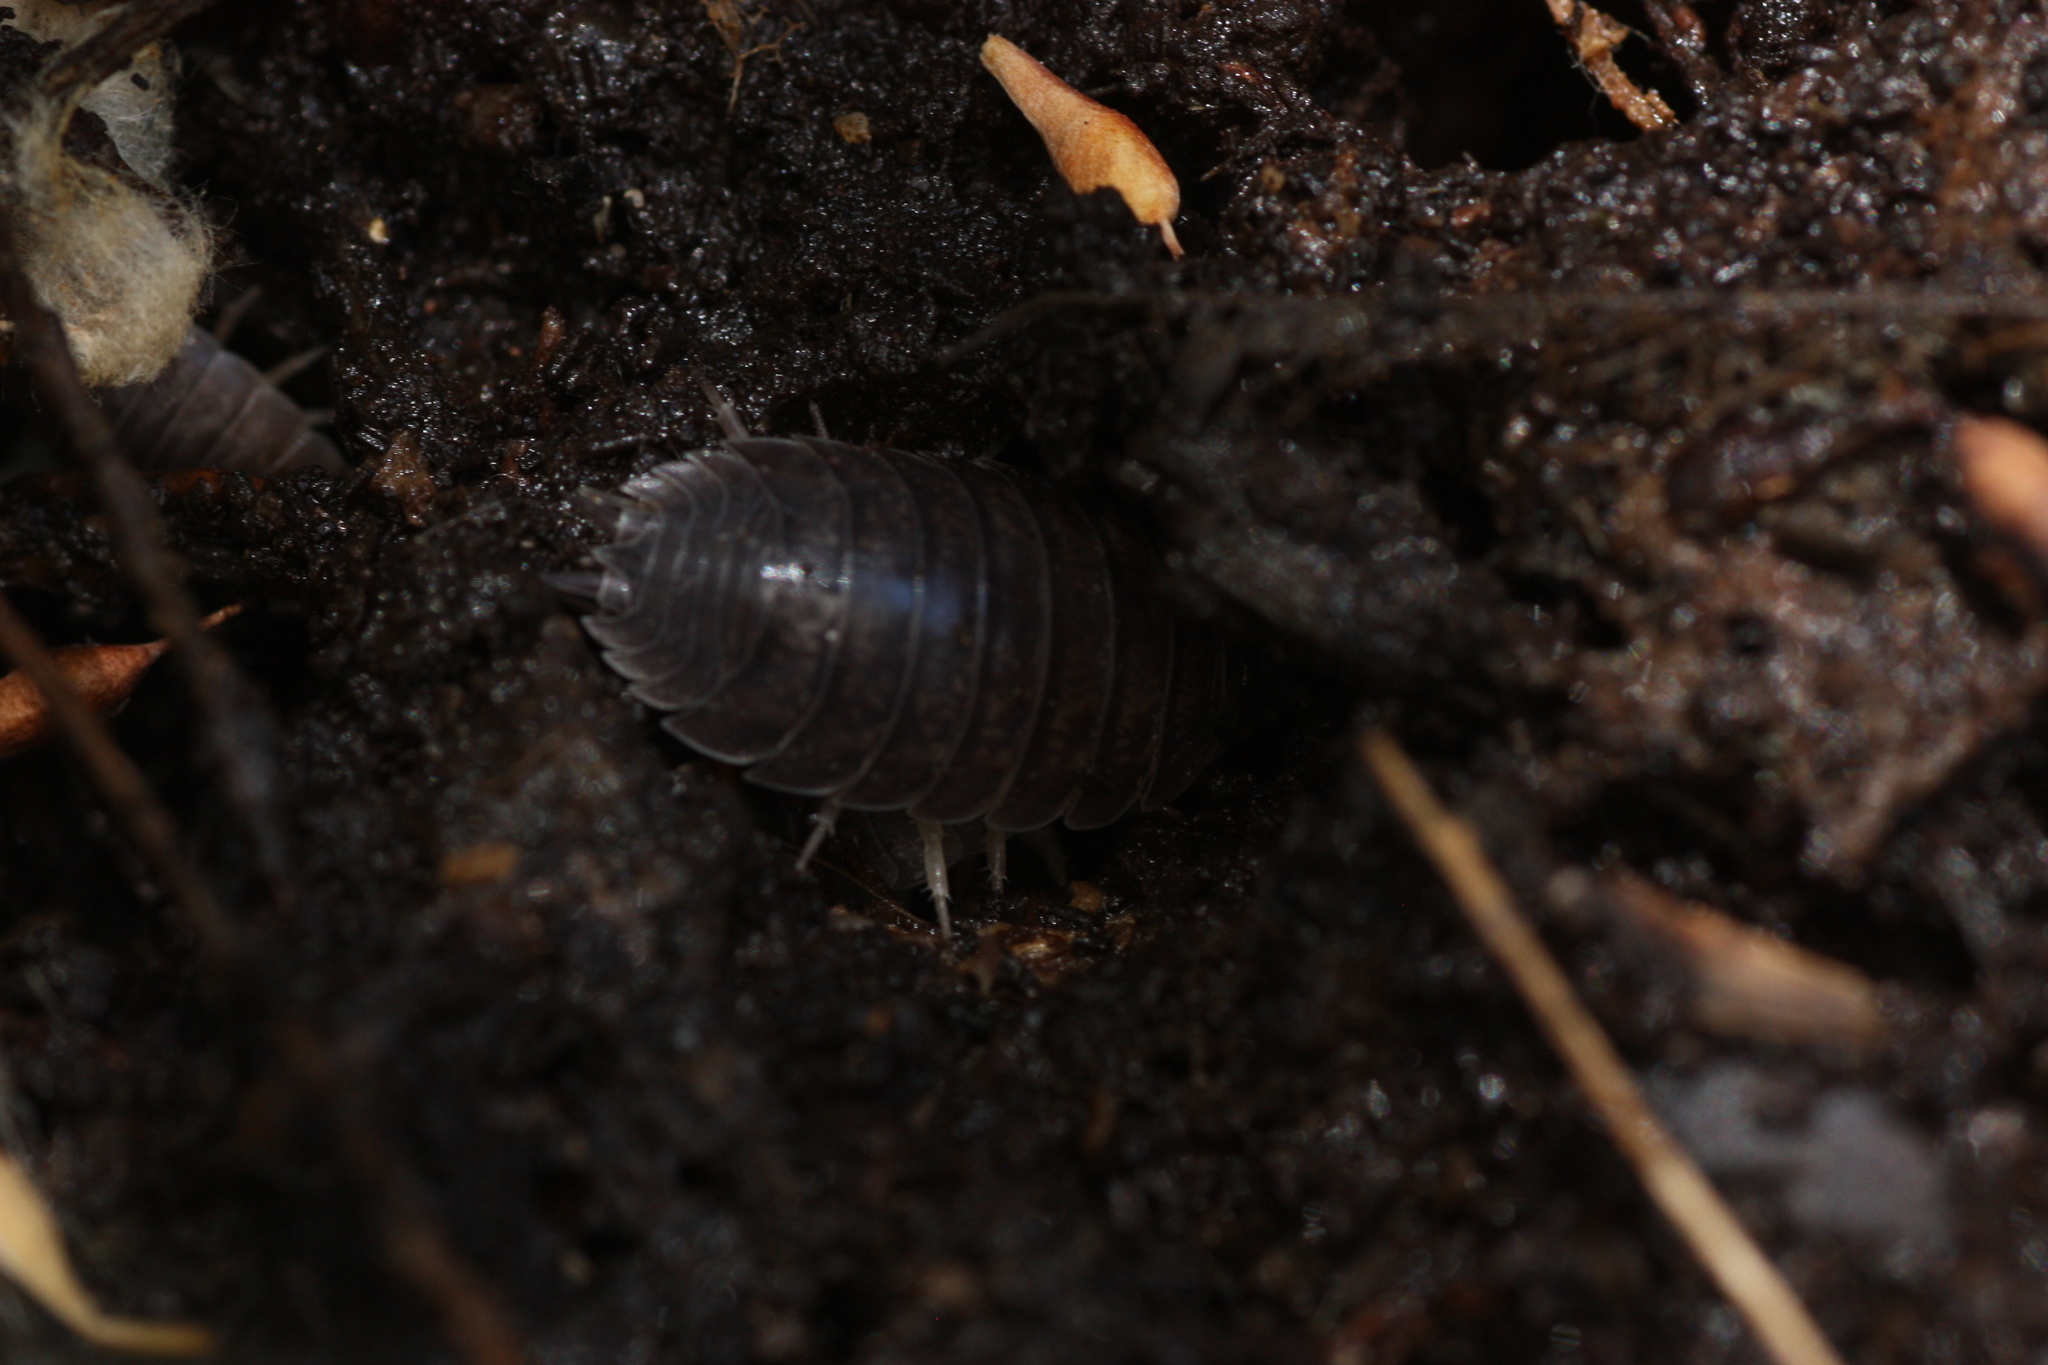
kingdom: Animalia
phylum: Arthropoda
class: Malacostraca
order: Isopoda
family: Porcellionidae
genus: Porcellio
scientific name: Porcellio laevis
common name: Swift woodlouse
